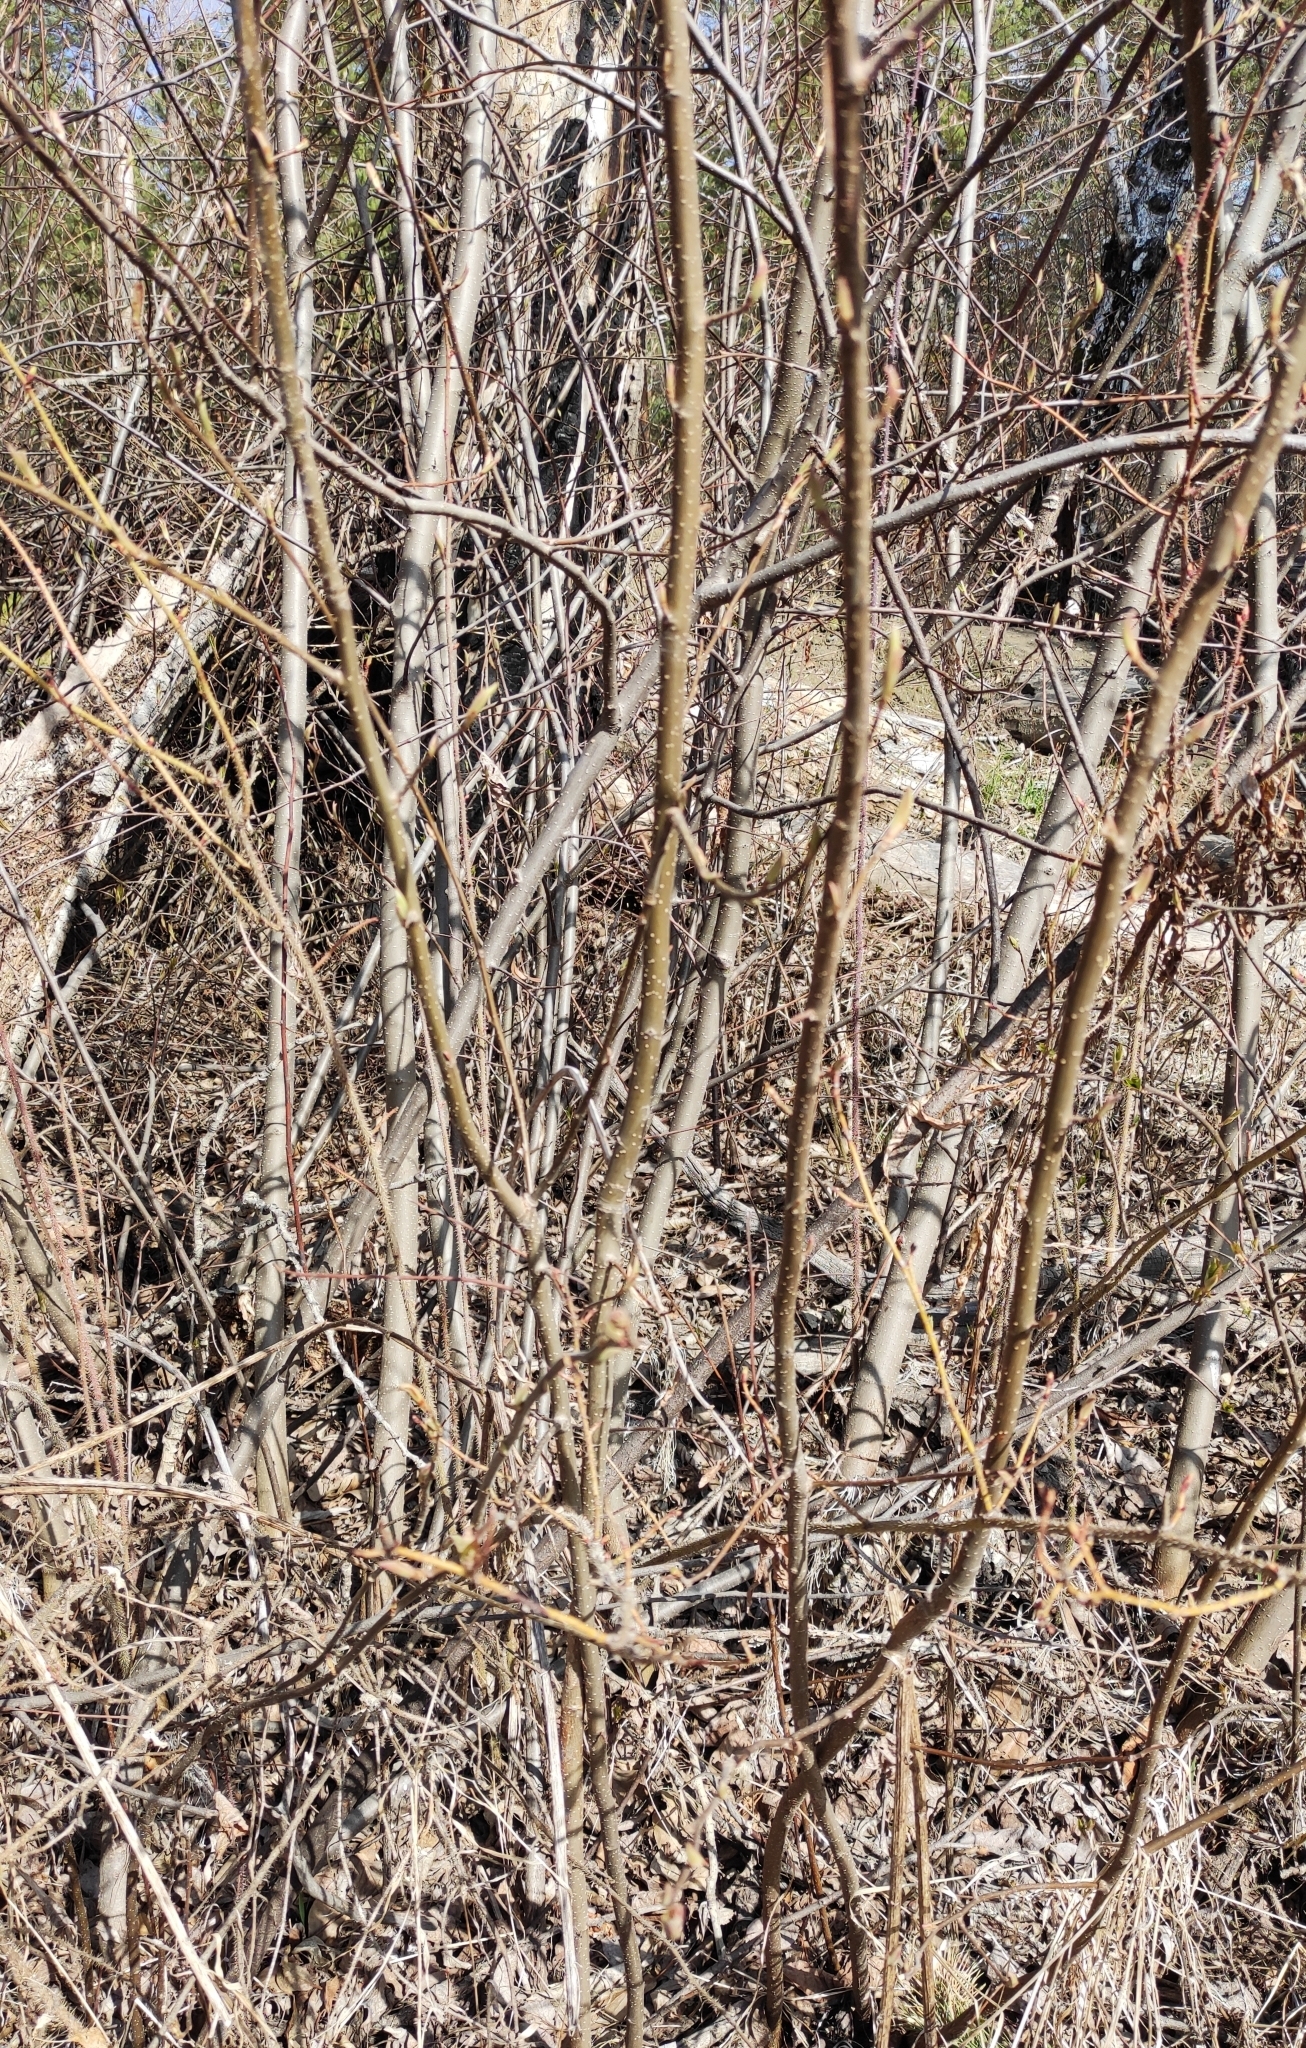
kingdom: Plantae
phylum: Tracheophyta
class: Magnoliopsida
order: Rosales
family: Rosaceae
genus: Prunus
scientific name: Prunus padus
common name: Bird cherry
